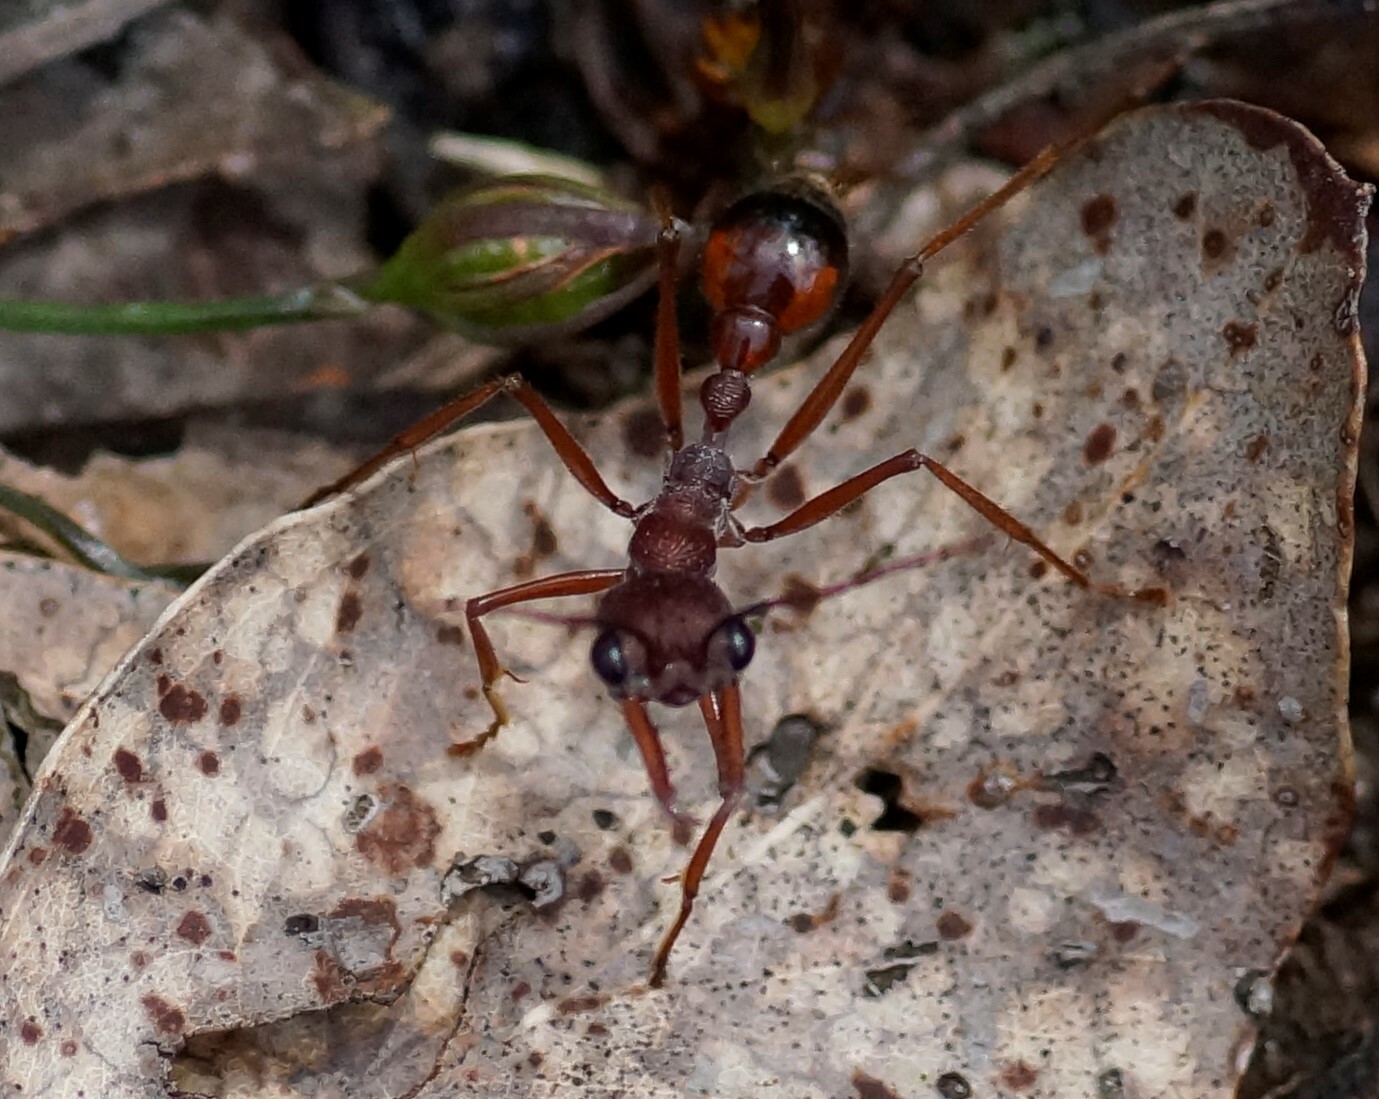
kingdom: Animalia
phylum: Arthropoda
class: Insecta
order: Hymenoptera
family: Formicidae
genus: Myrmecia
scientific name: Myrmecia nigriscapa
